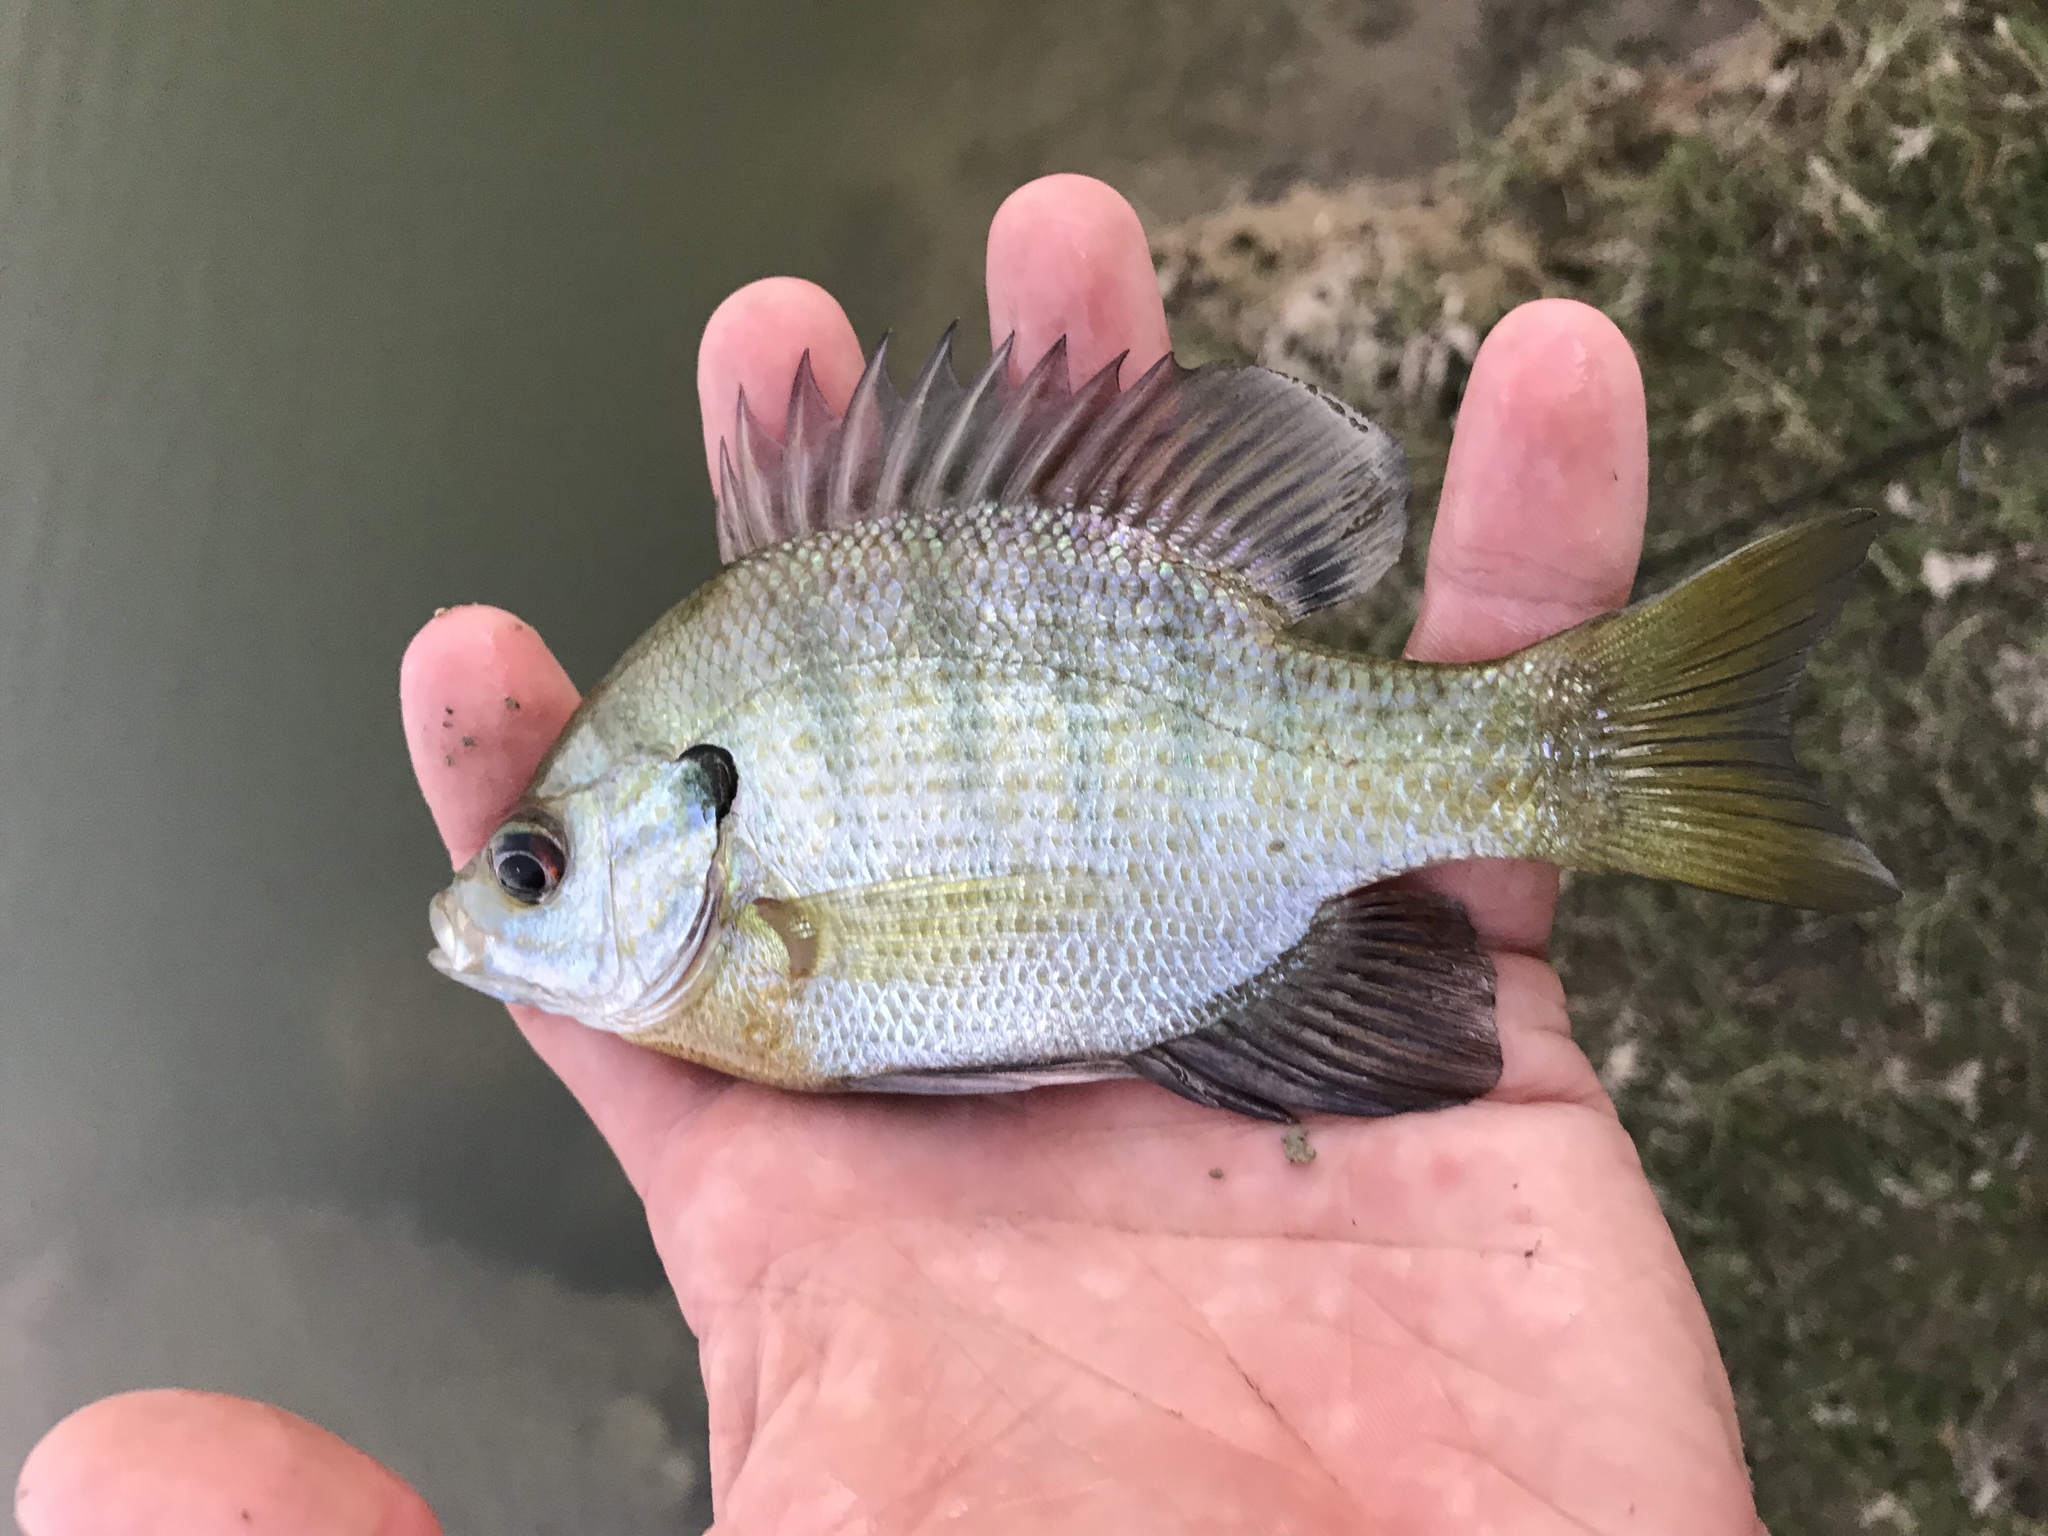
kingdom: Animalia
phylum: Chordata
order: Perciformes
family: Centrarchidae
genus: Lepomis
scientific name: Lepomis macrochirus
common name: Bluegill
